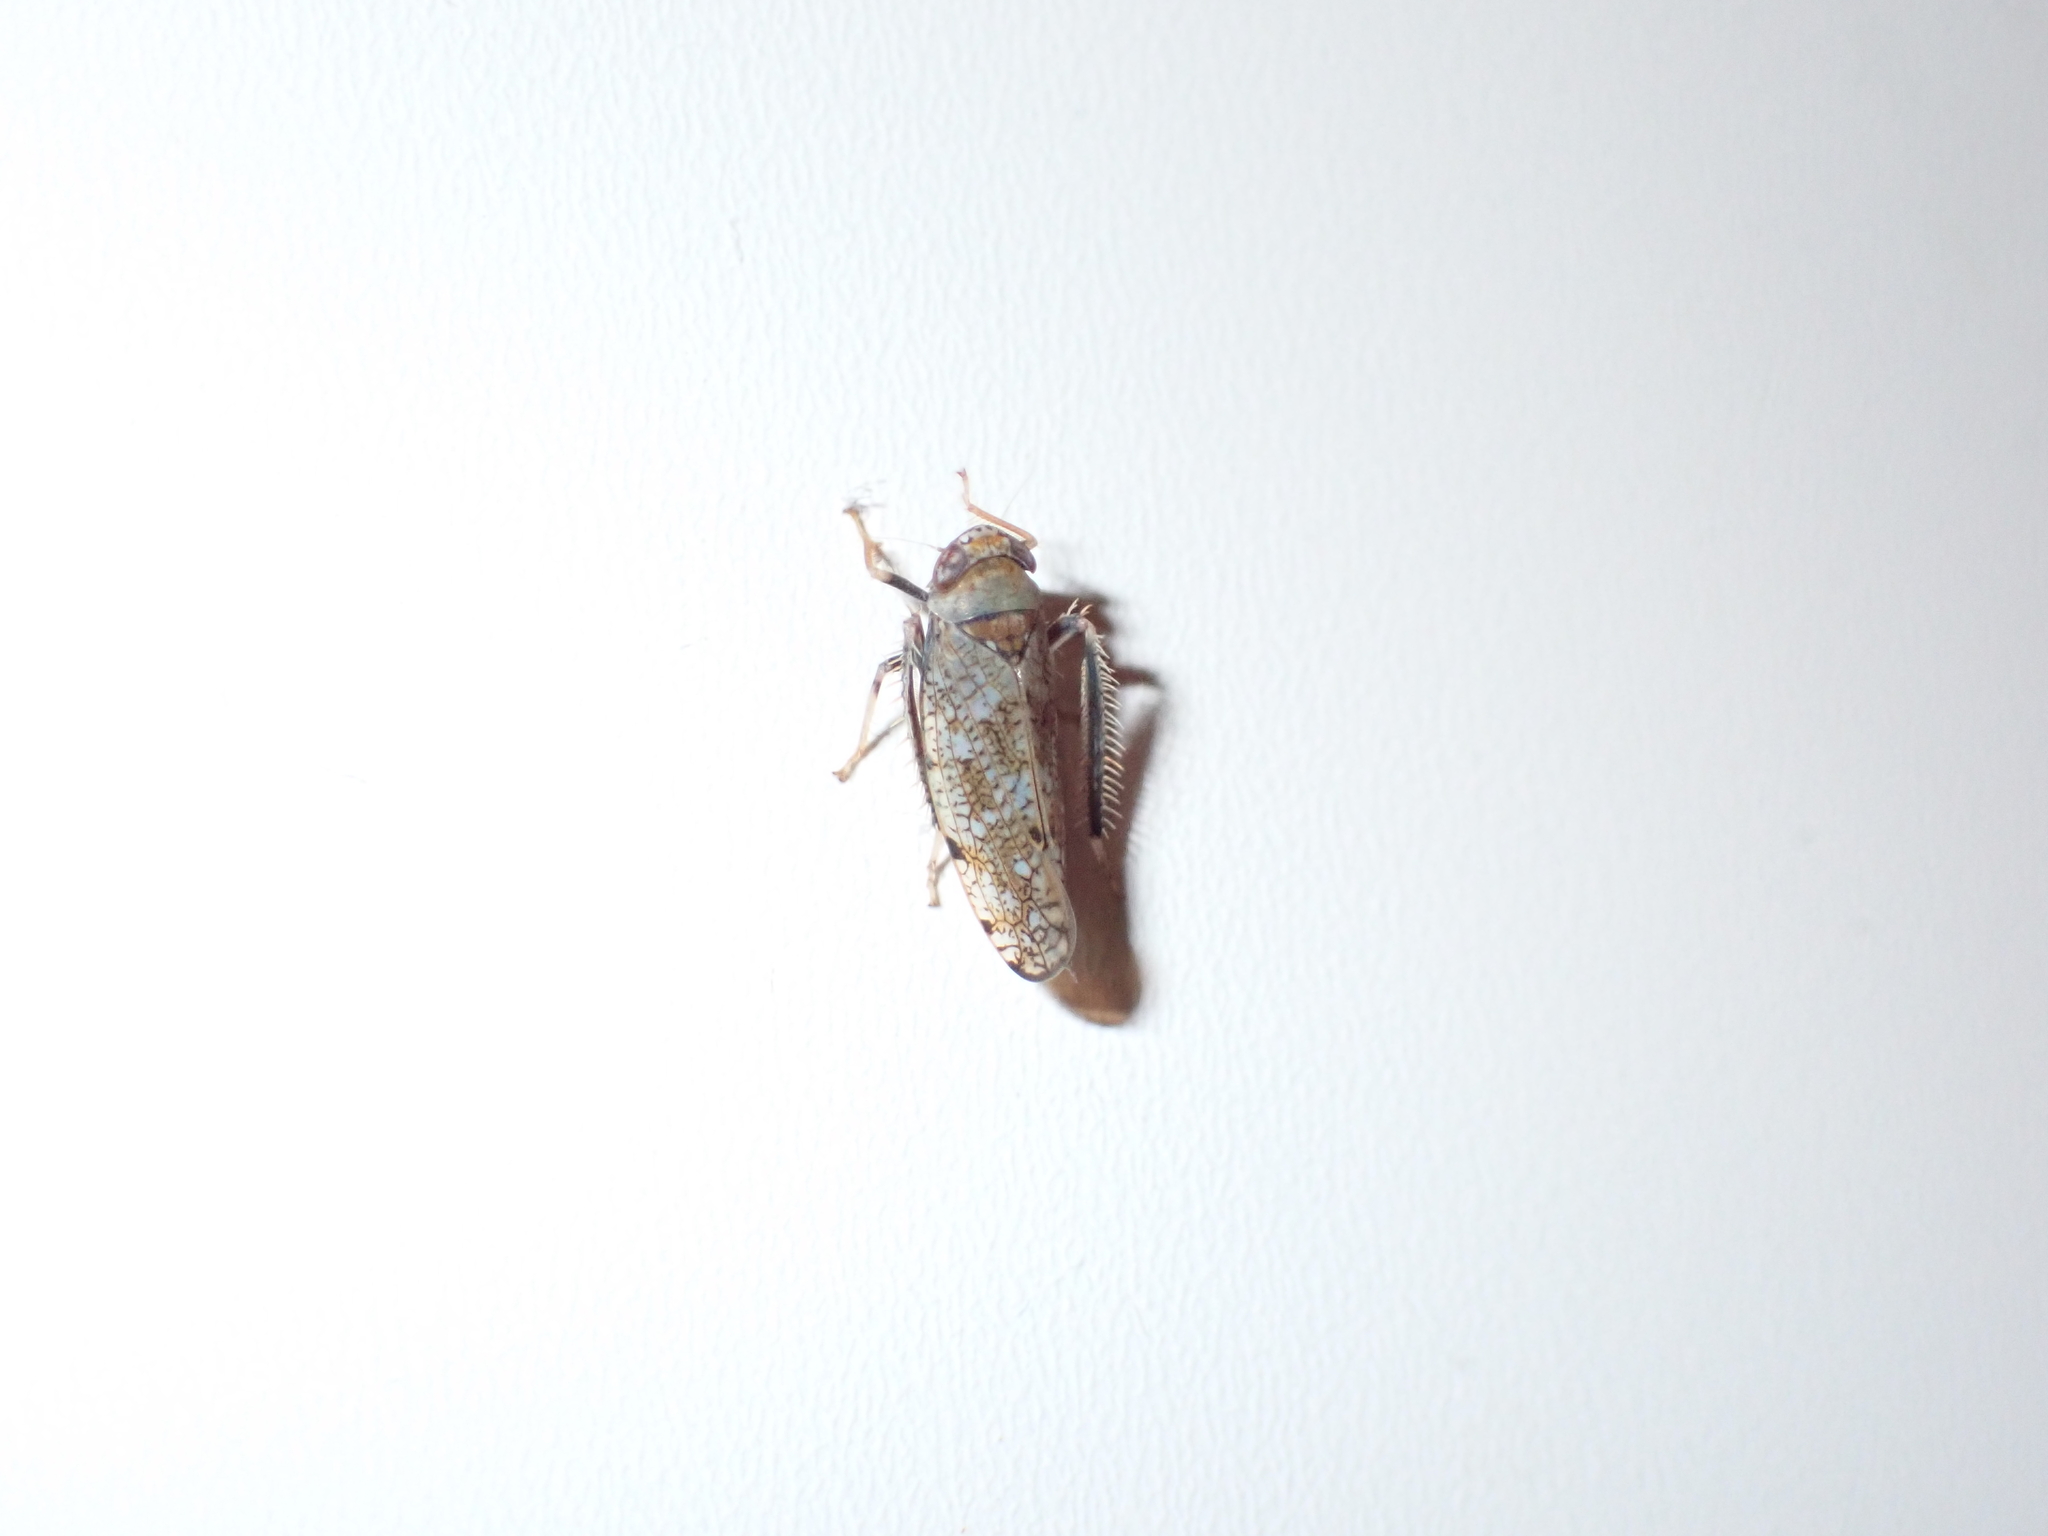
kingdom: Animalia
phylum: Arthropoda
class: Insecta
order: Hemiptera
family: Cicadellidae
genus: Orientus
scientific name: Orientus ishidae
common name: Japanese leafhopper
